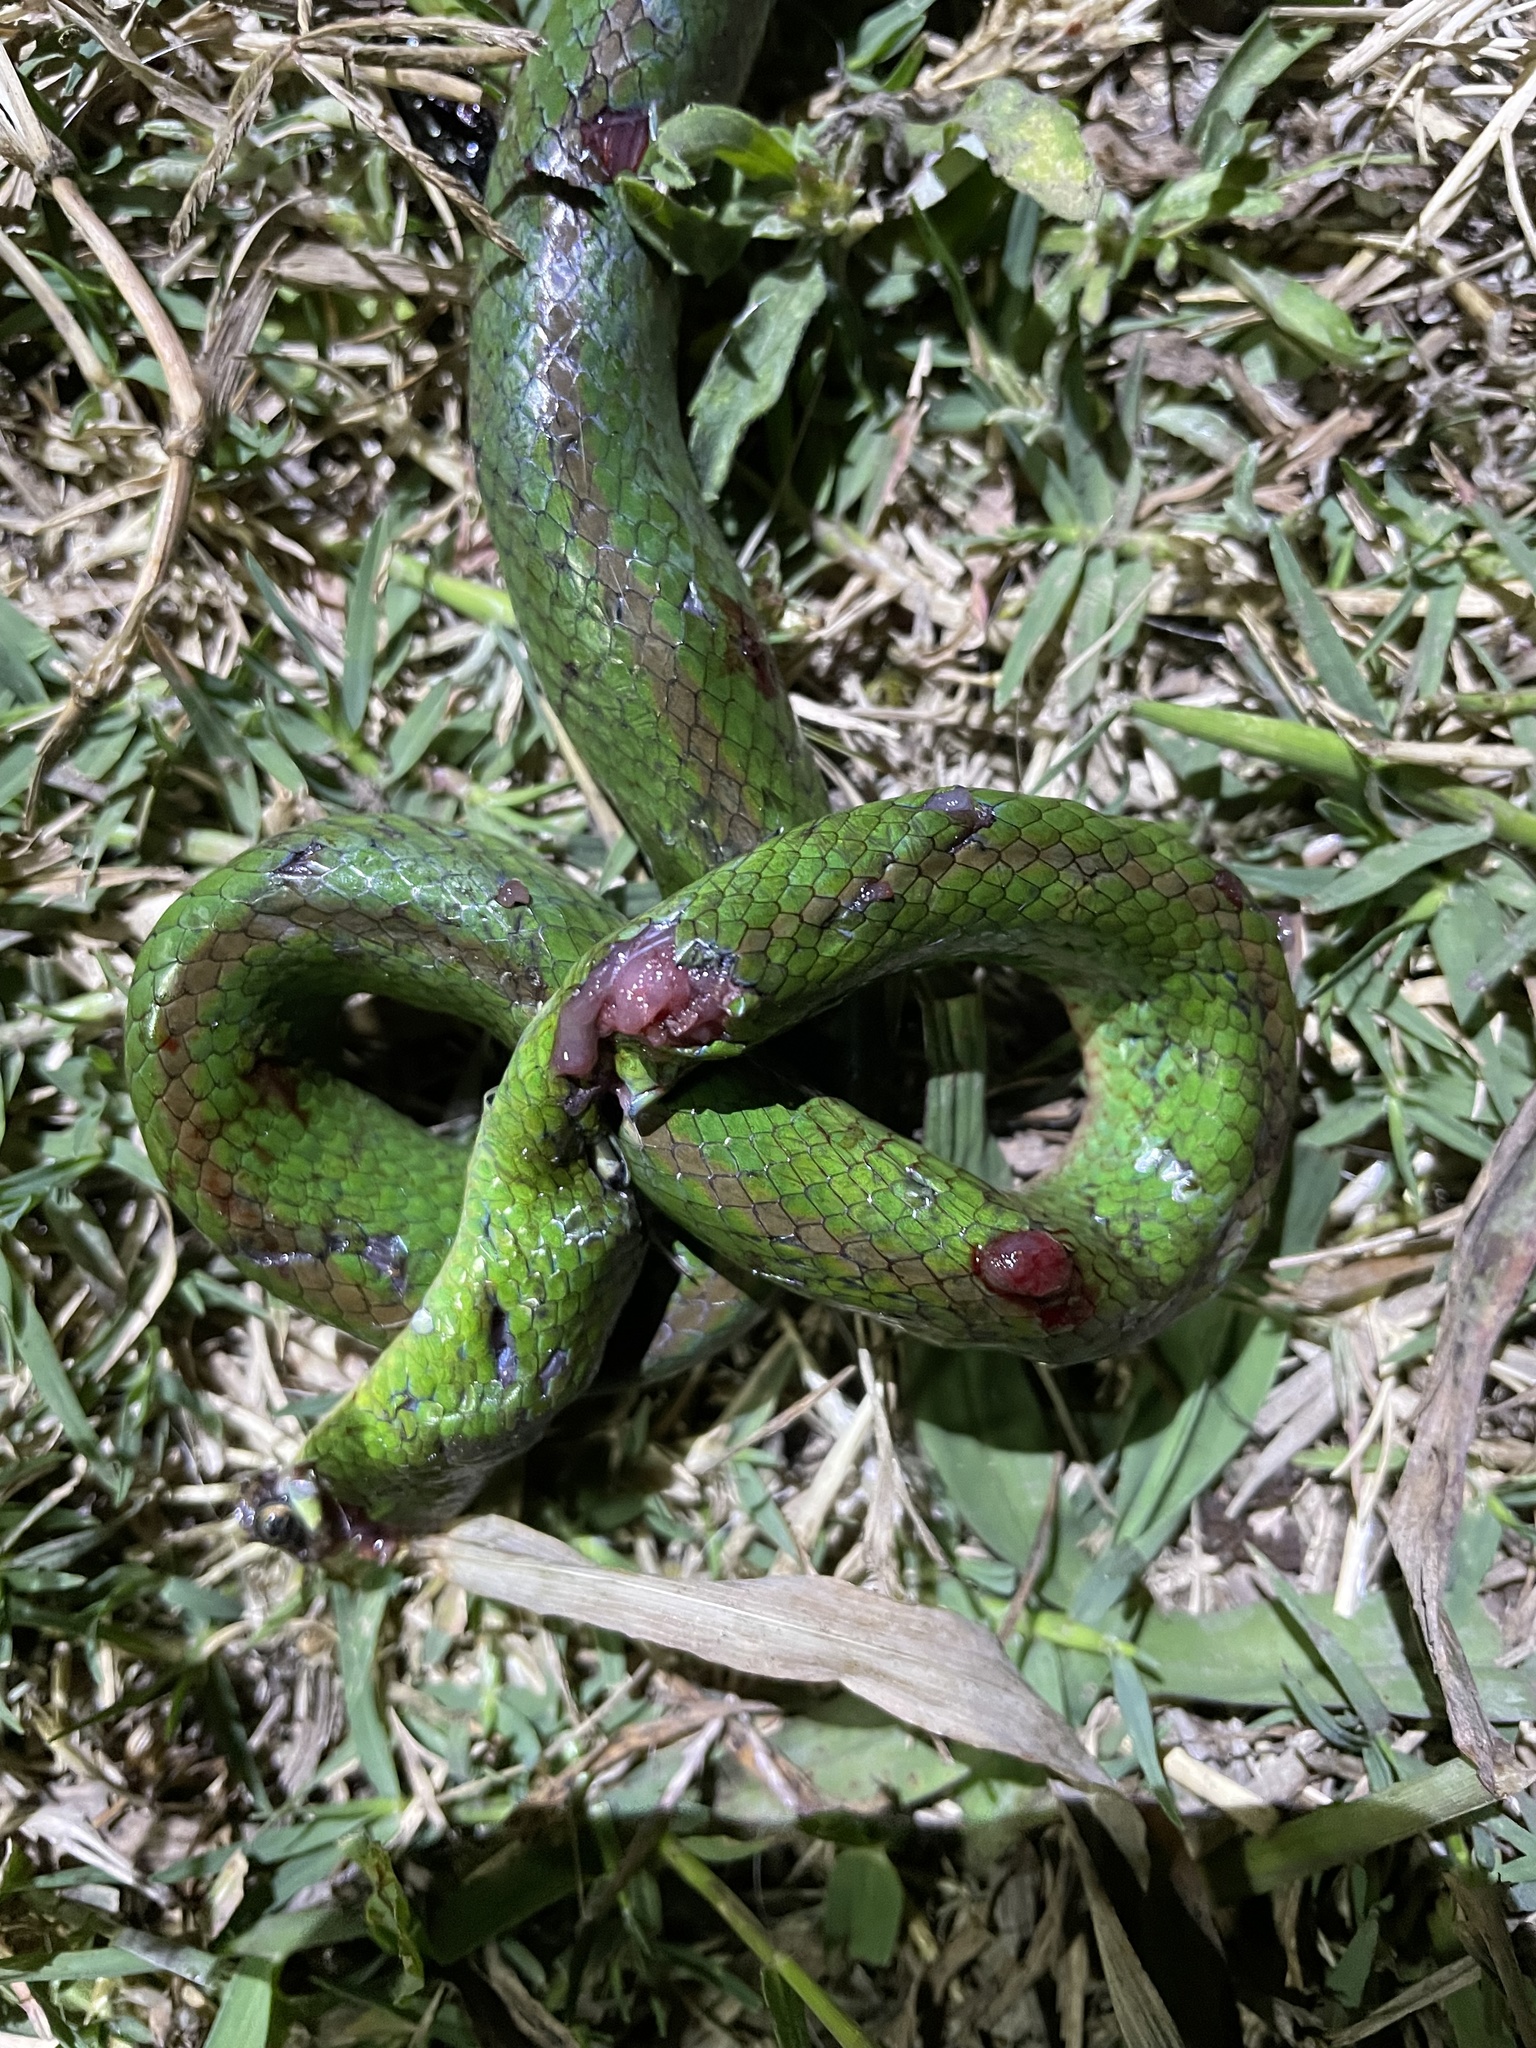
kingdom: Animalia
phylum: Chordata
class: Squamata
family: Colubridae
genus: Erythrolamprus
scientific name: Erythrolamprus jaegeri
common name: Jaeger's ground snake
